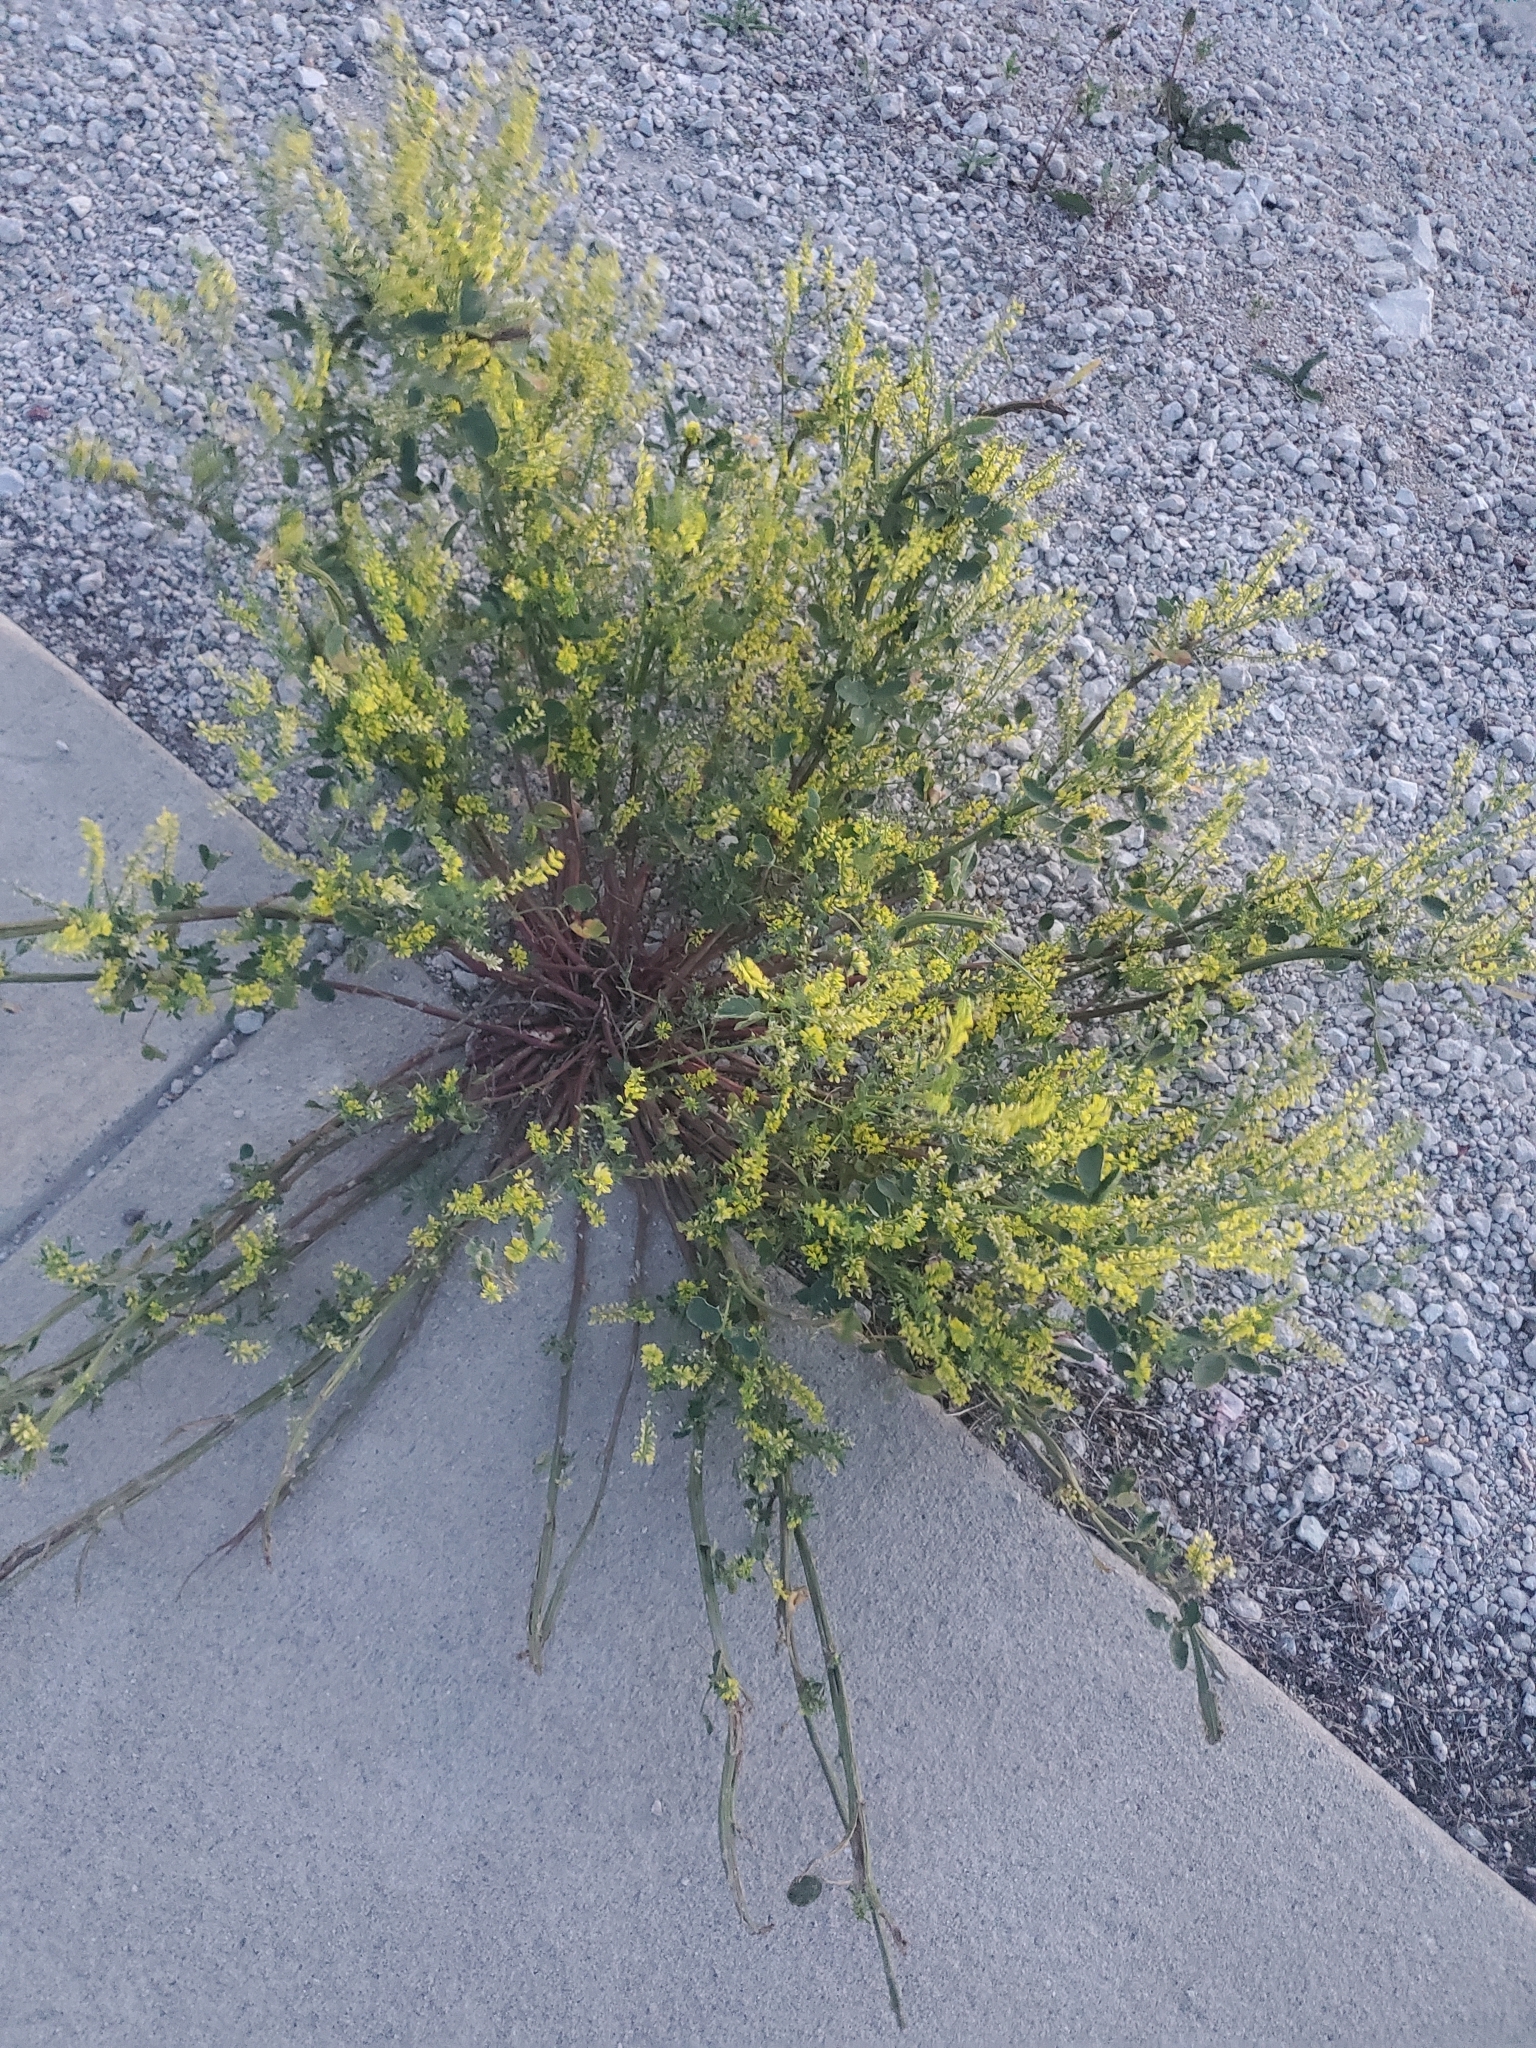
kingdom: Plantae
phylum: Tracheophyta
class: Magnoliopsida
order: Fabales
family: Fabaceae
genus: Melilotus
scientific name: Melilotus officinalis
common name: Sweetclover
